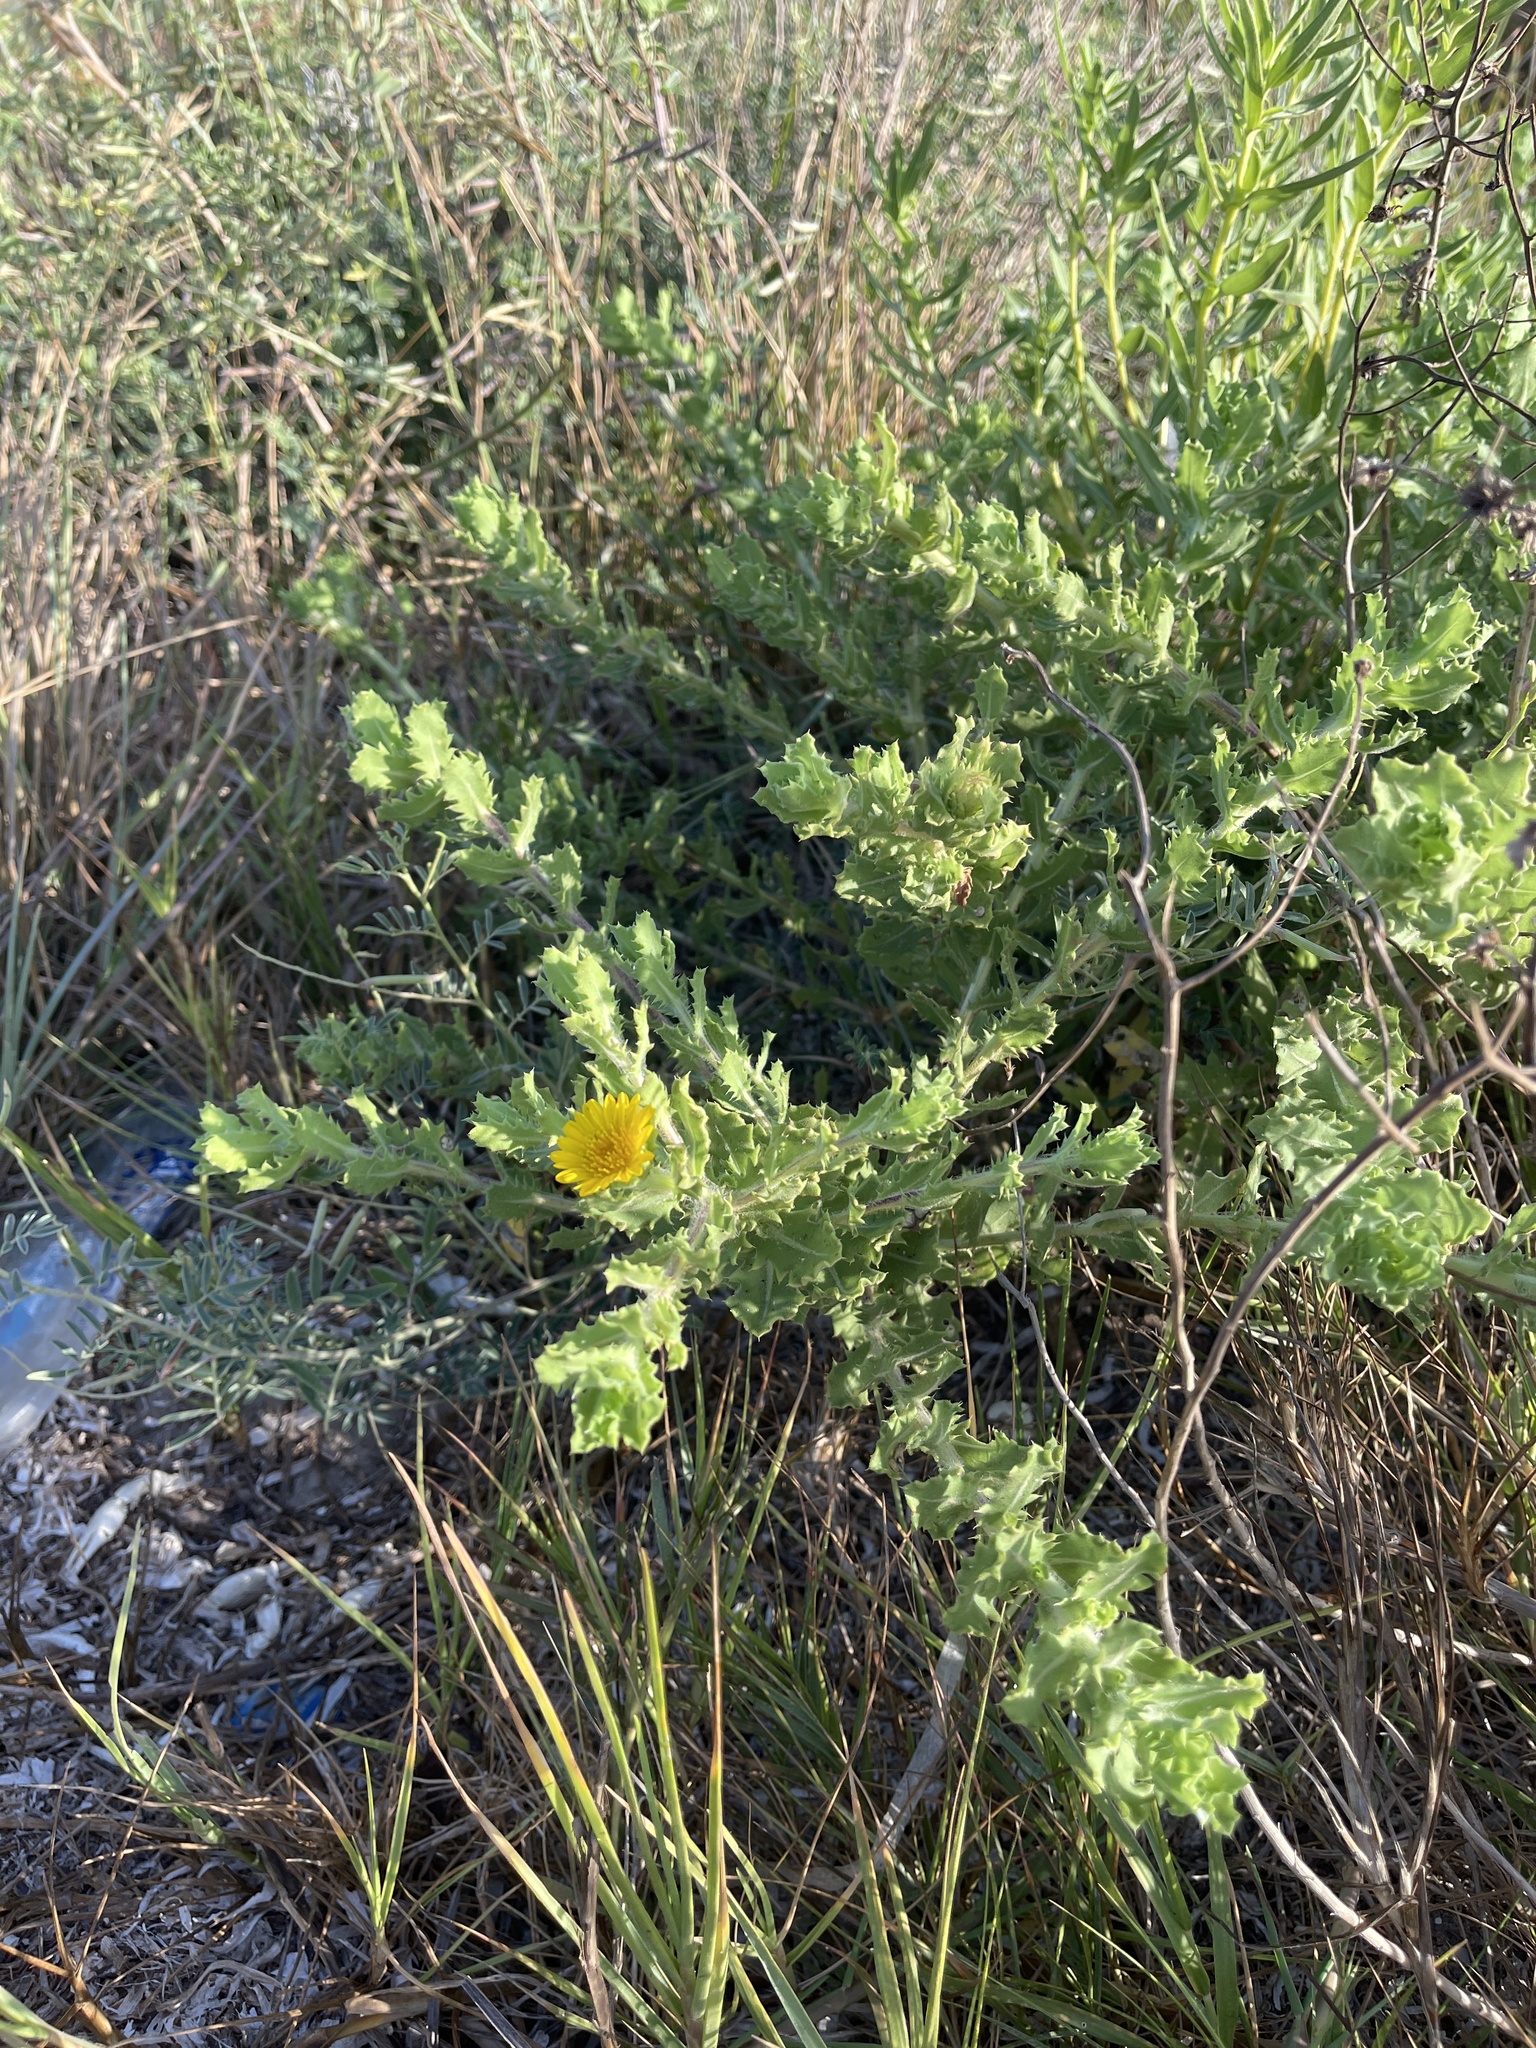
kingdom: Plantae
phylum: Tracheophyta
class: Magnoliopsida
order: Asterales
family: Asteraceae
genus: Rayjacksonia
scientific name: Rayjacksonia phyllocephala
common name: Gulf coast camphor daisy
